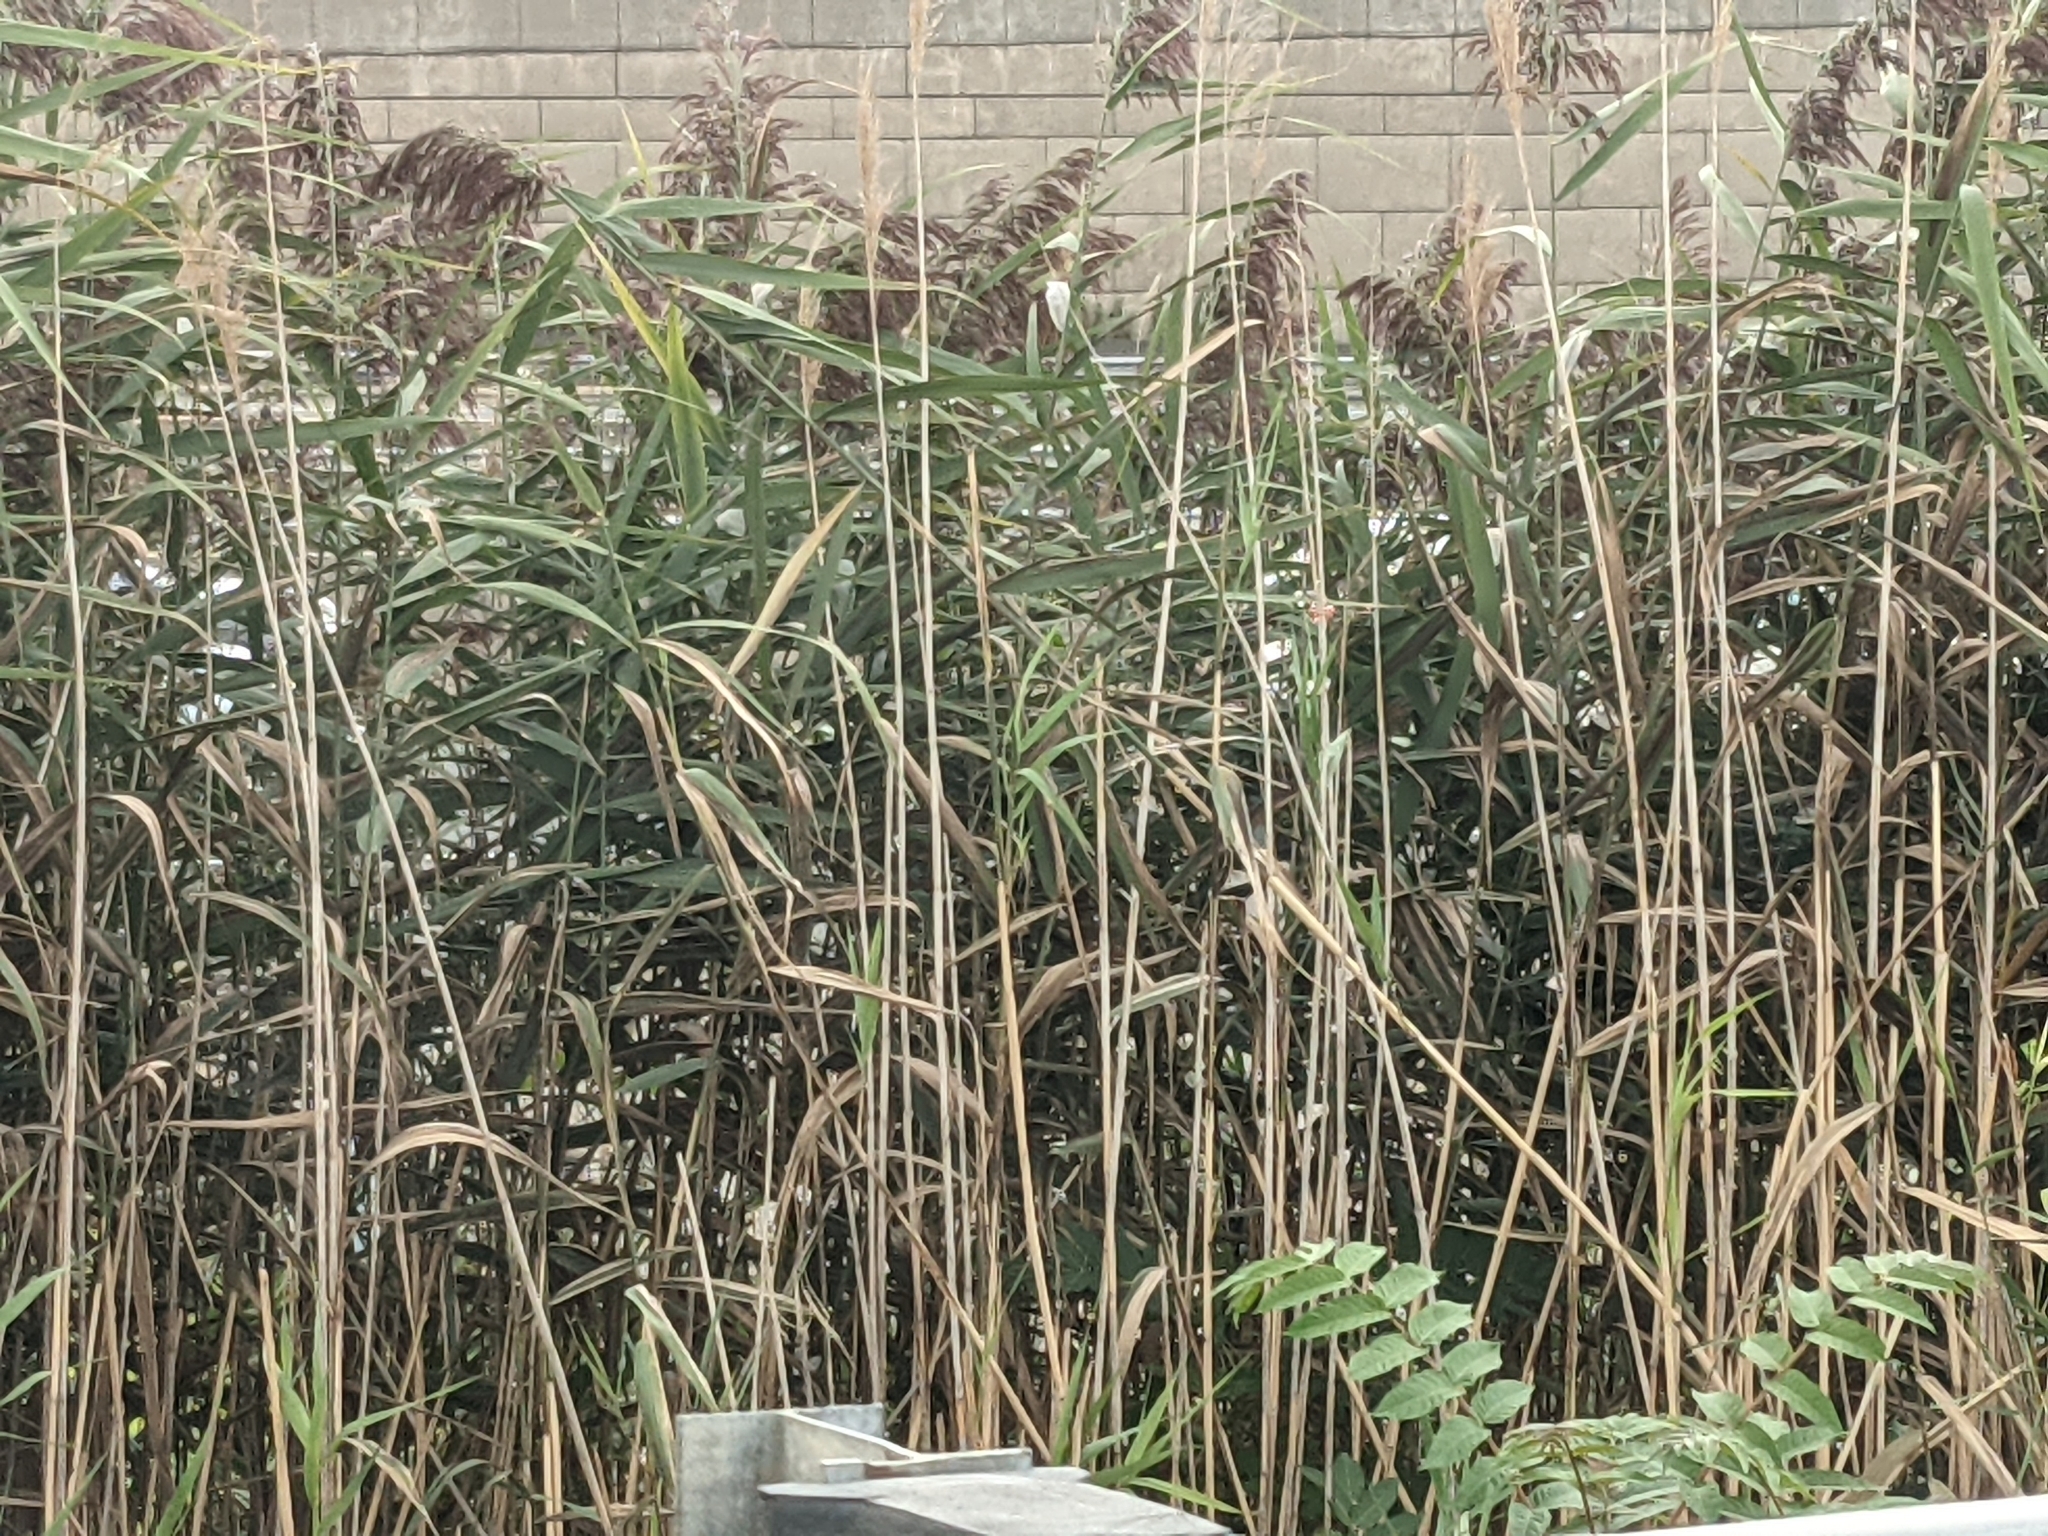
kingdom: Plantae
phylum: Tracheophyta
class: Liliopsida
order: Poales
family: Poaceae
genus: Phragmites
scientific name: Phragmites australis
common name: Common reed
